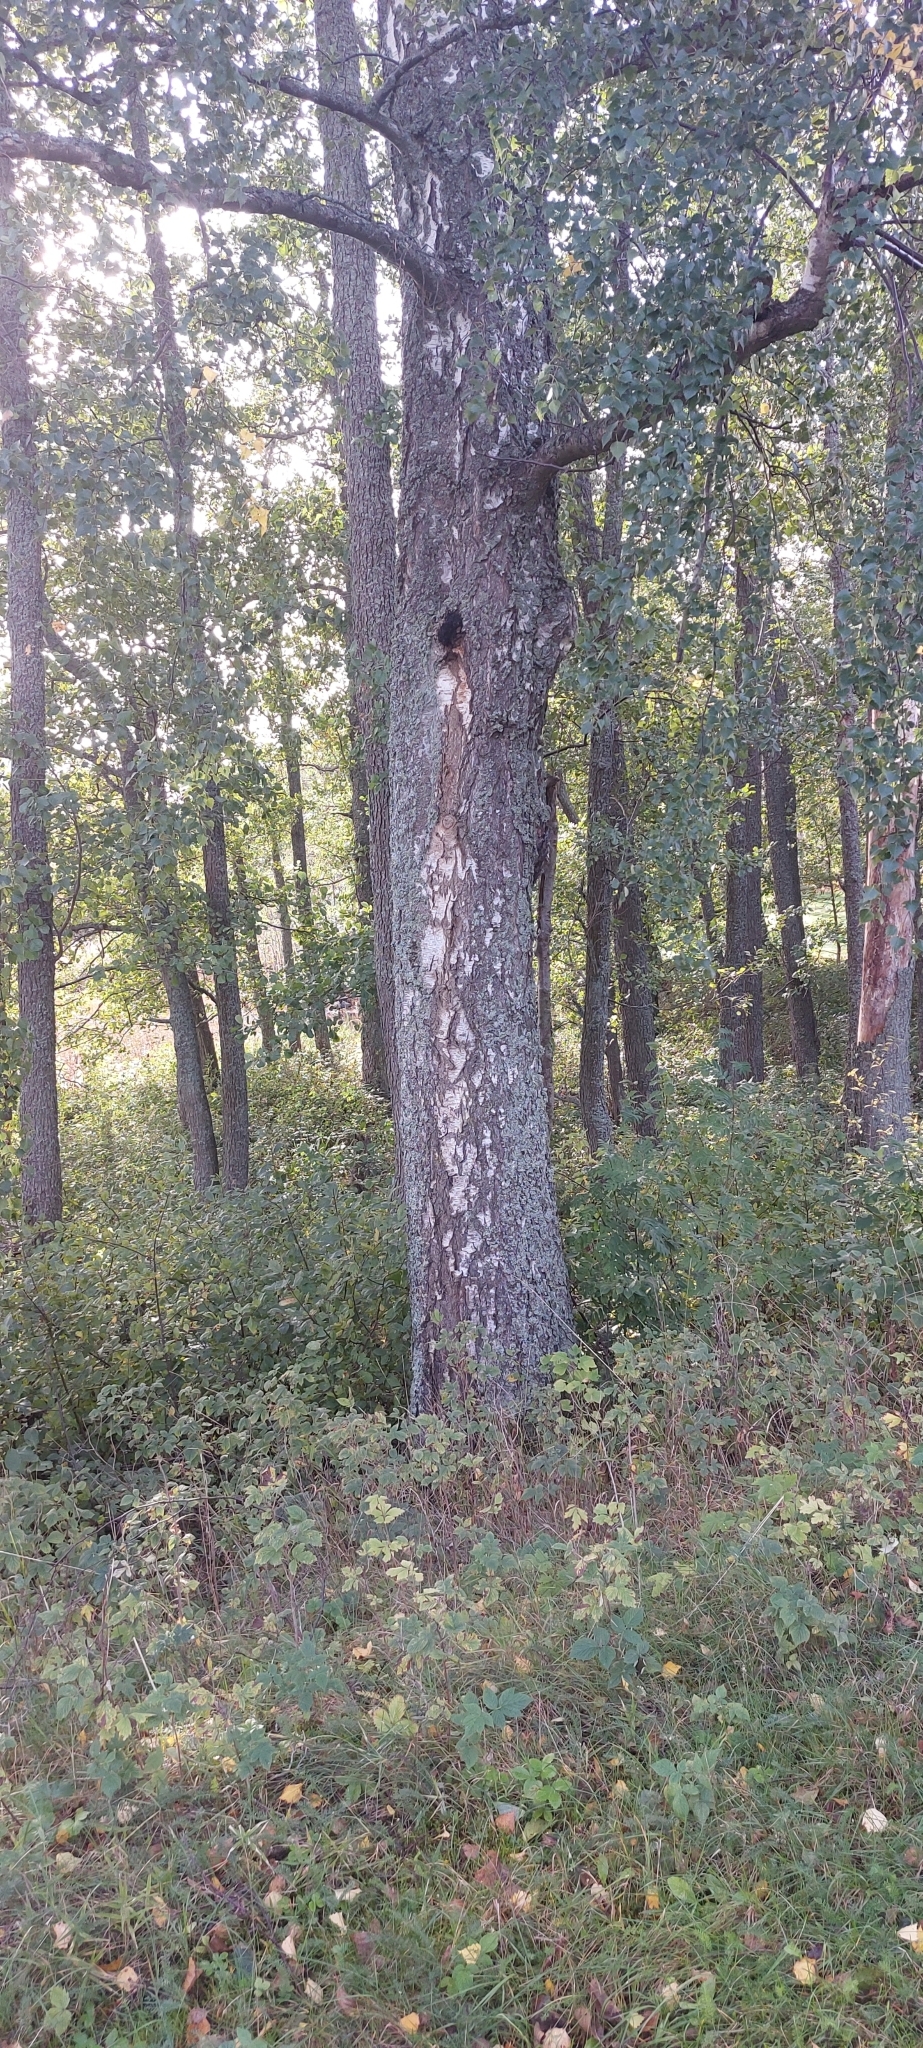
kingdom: Plantae
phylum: Tracheophyta
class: Magnoliopsida
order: Fagales
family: Betulaceae
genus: Betula
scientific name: Betula pendula
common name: Silver birch
